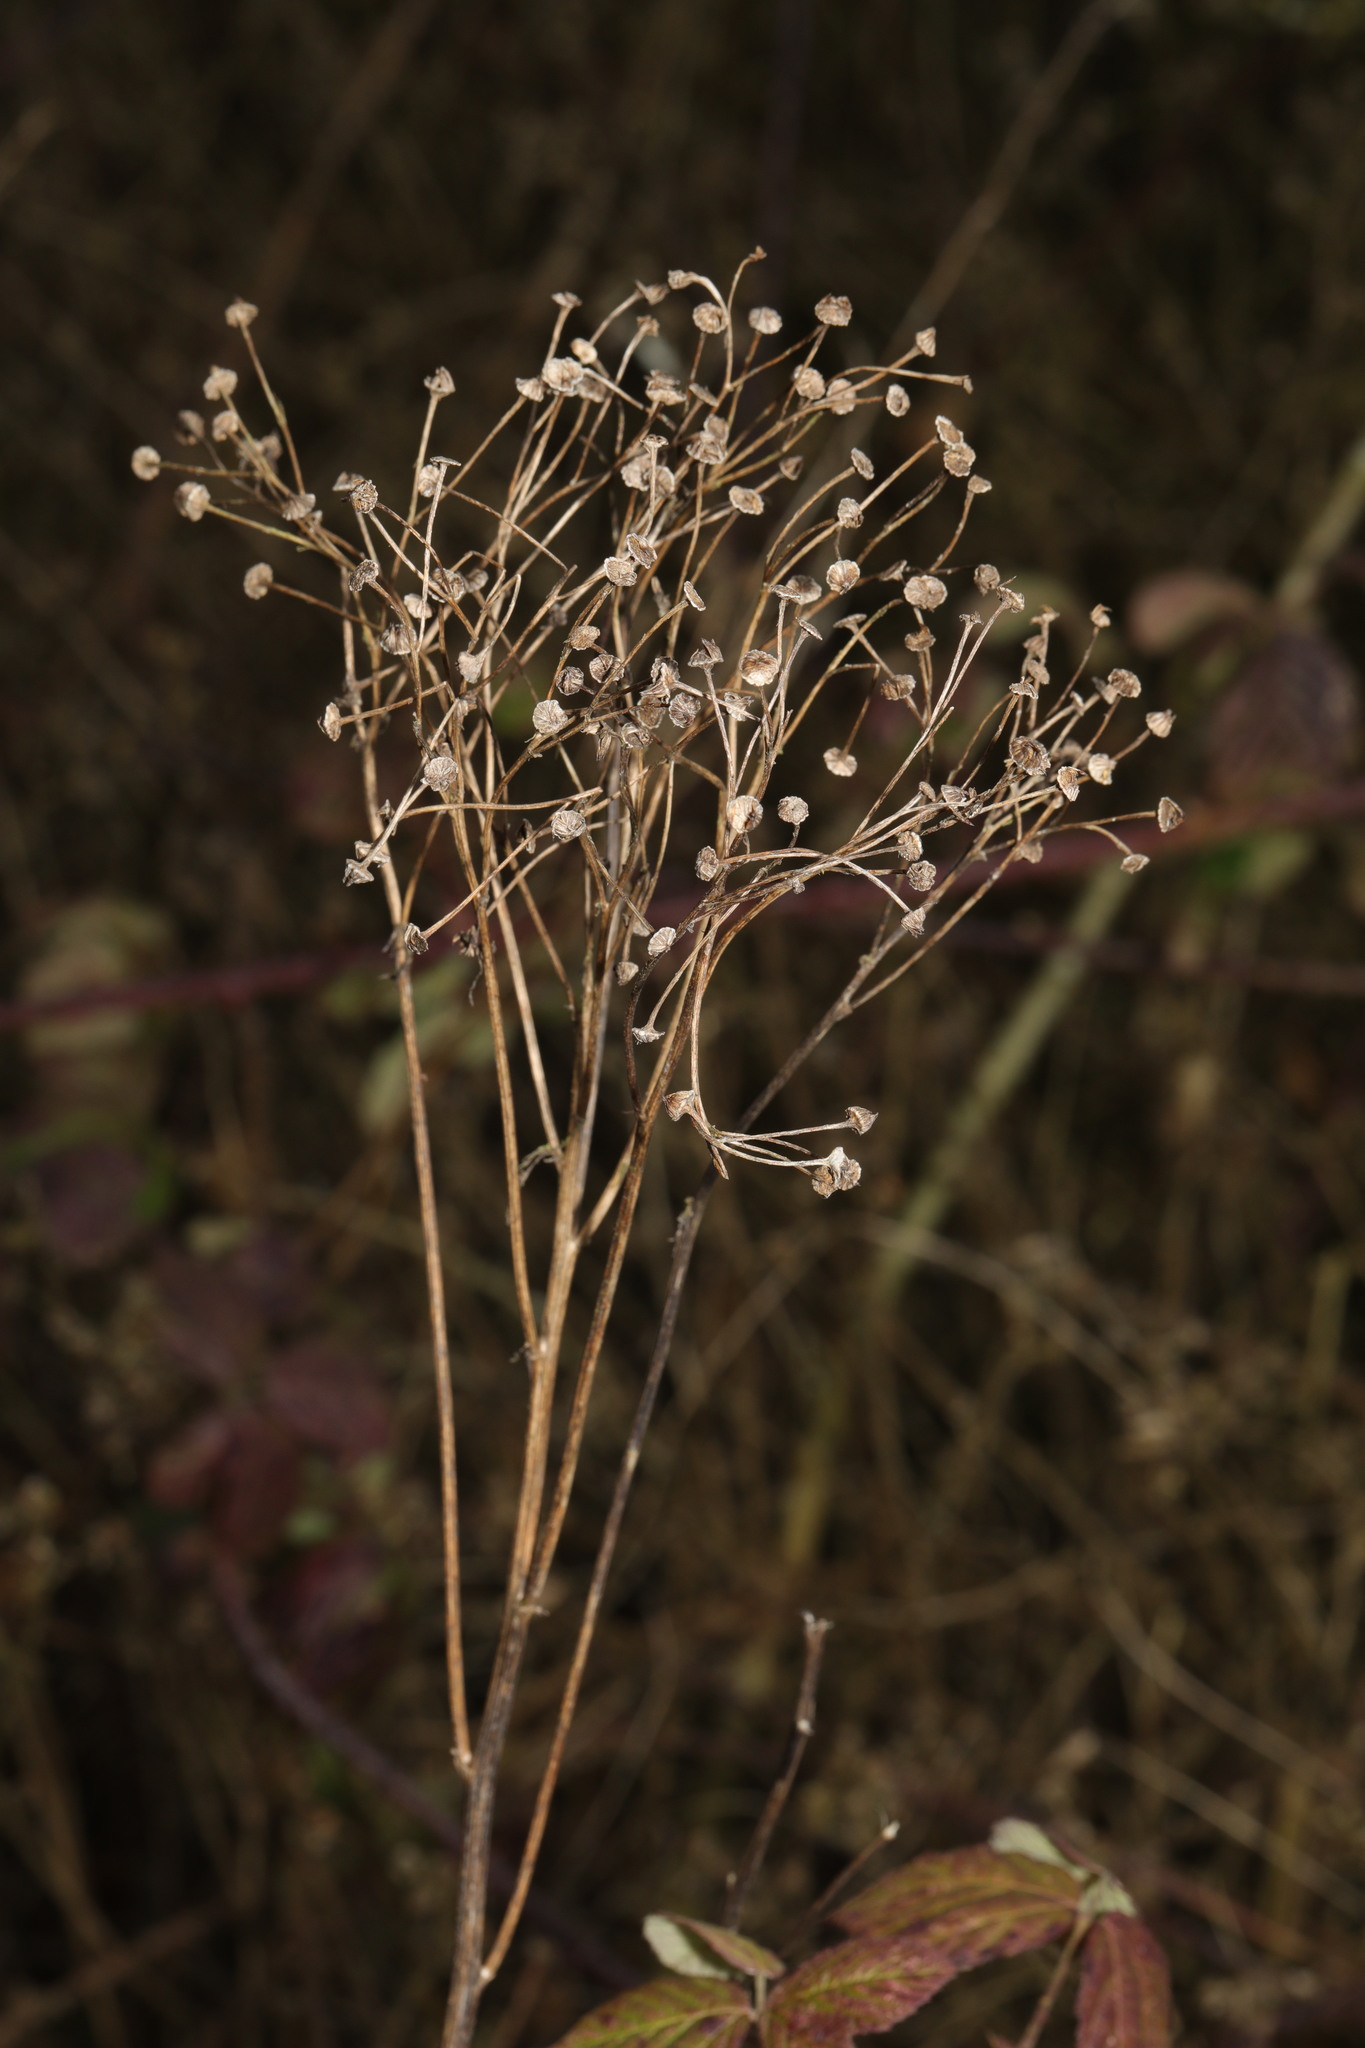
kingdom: Plantae
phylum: Tracheophyta
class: Magnoliopsida
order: Asterales
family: Asteraceae
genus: Erigeron
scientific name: Erigeron canadensis
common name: Canadian fleabane
